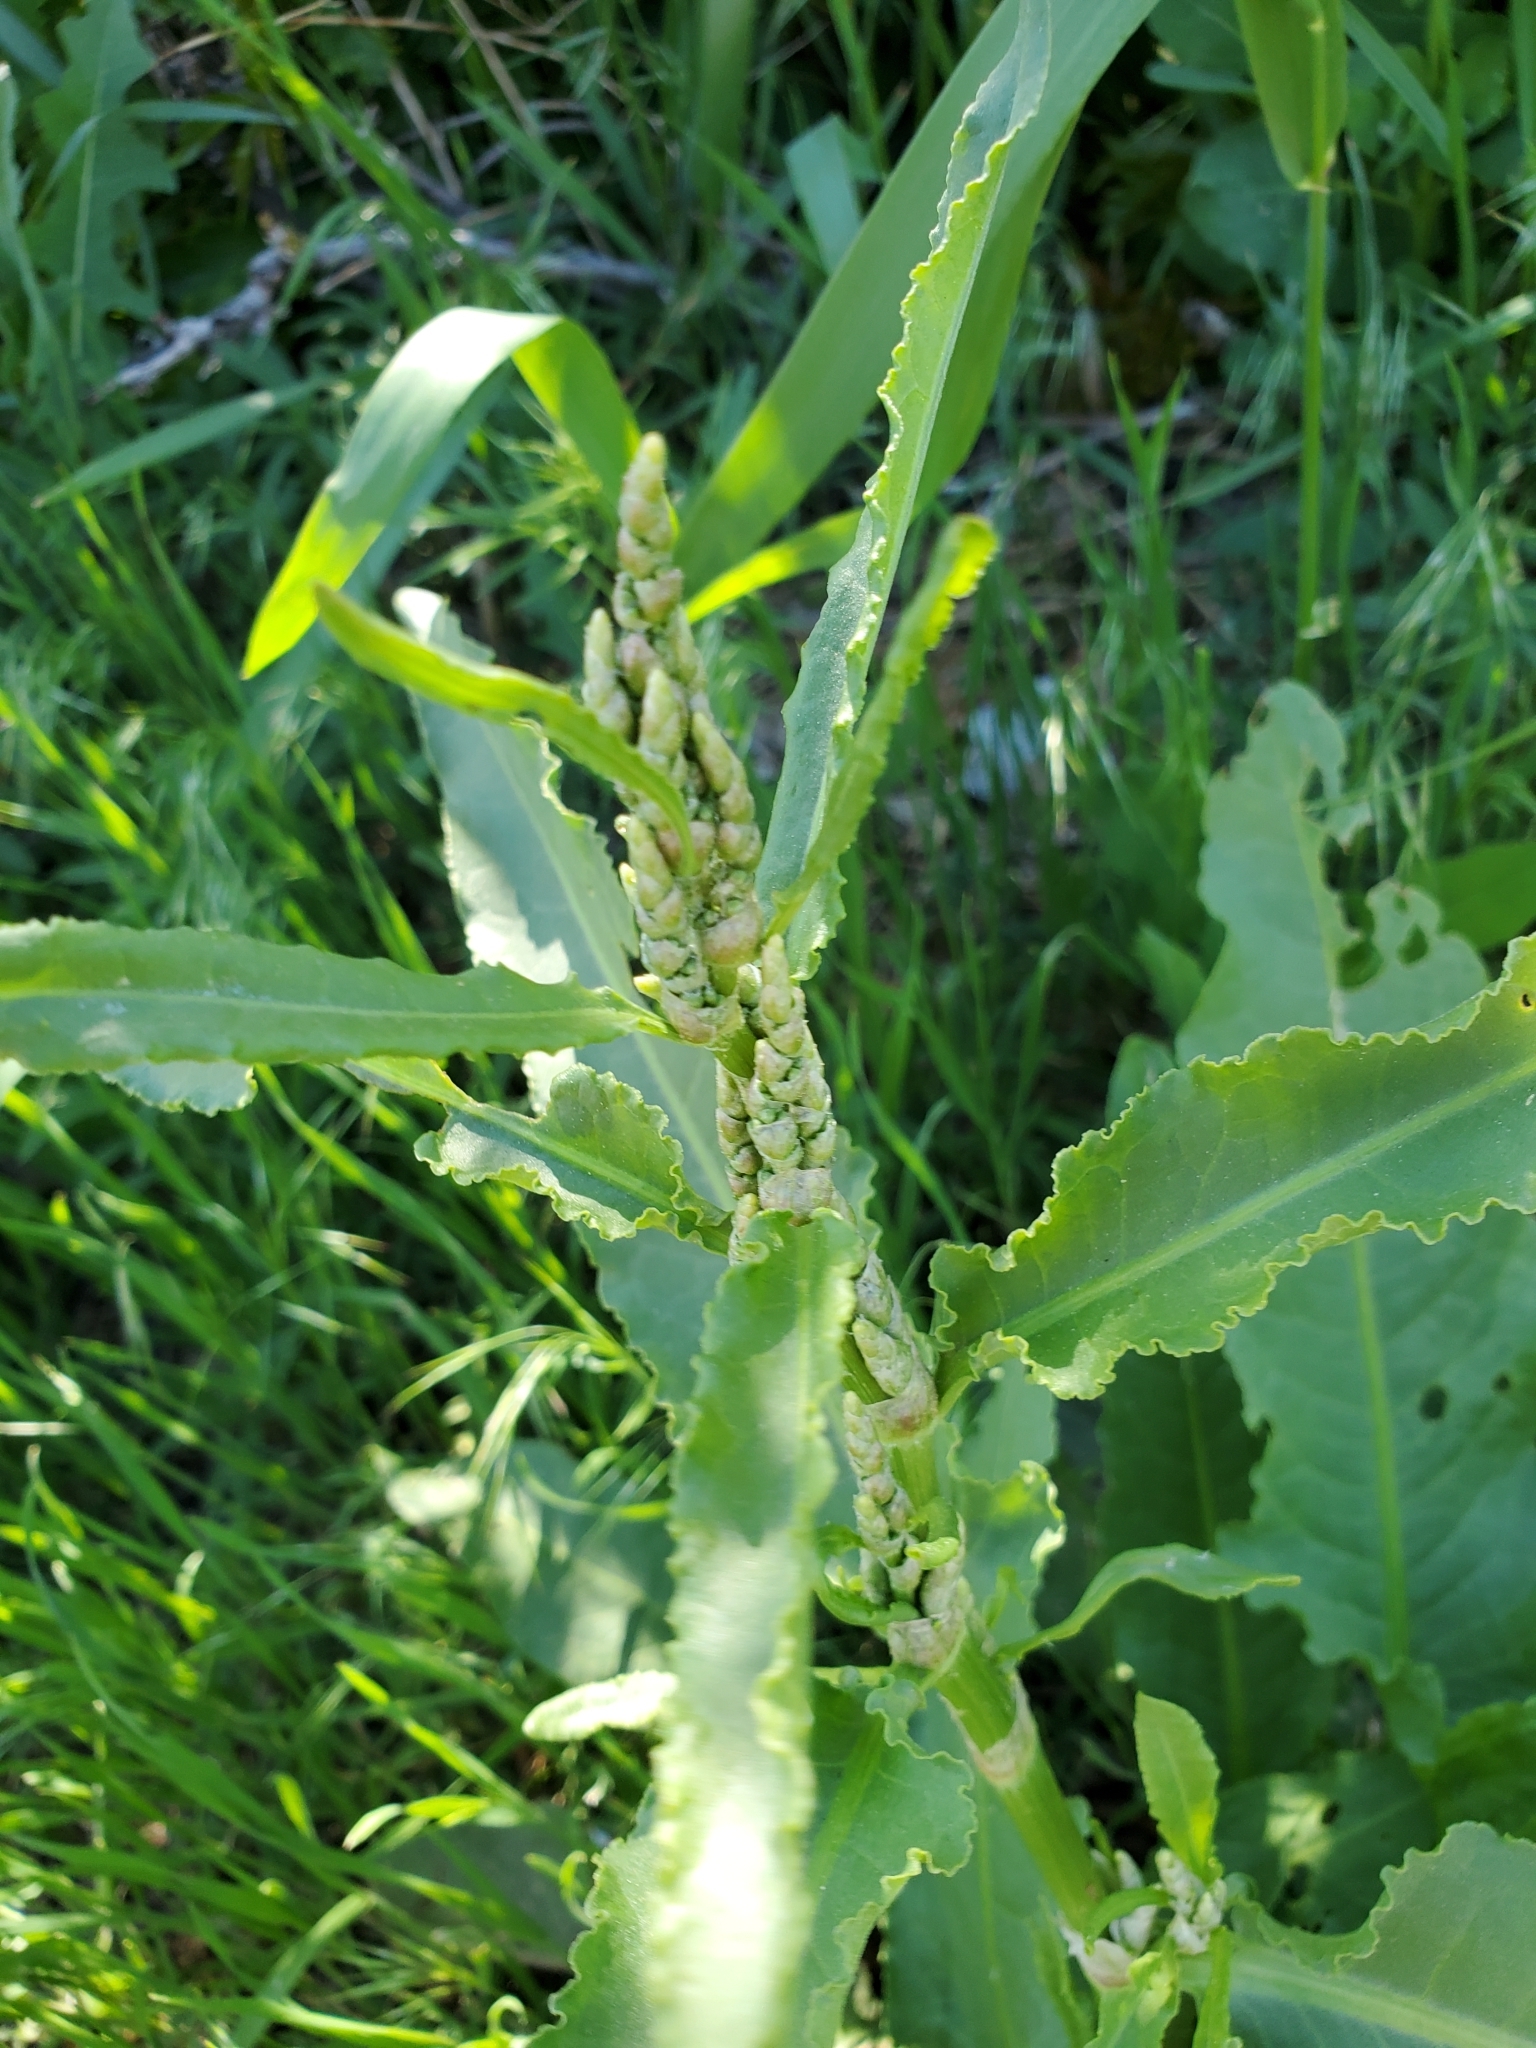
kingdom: Plantae
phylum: Tracheophyta
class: Magnoliopsida
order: Caryophyllales
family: Polygonaceae
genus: Rumex
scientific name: Rumex crispus
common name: Curled dock
